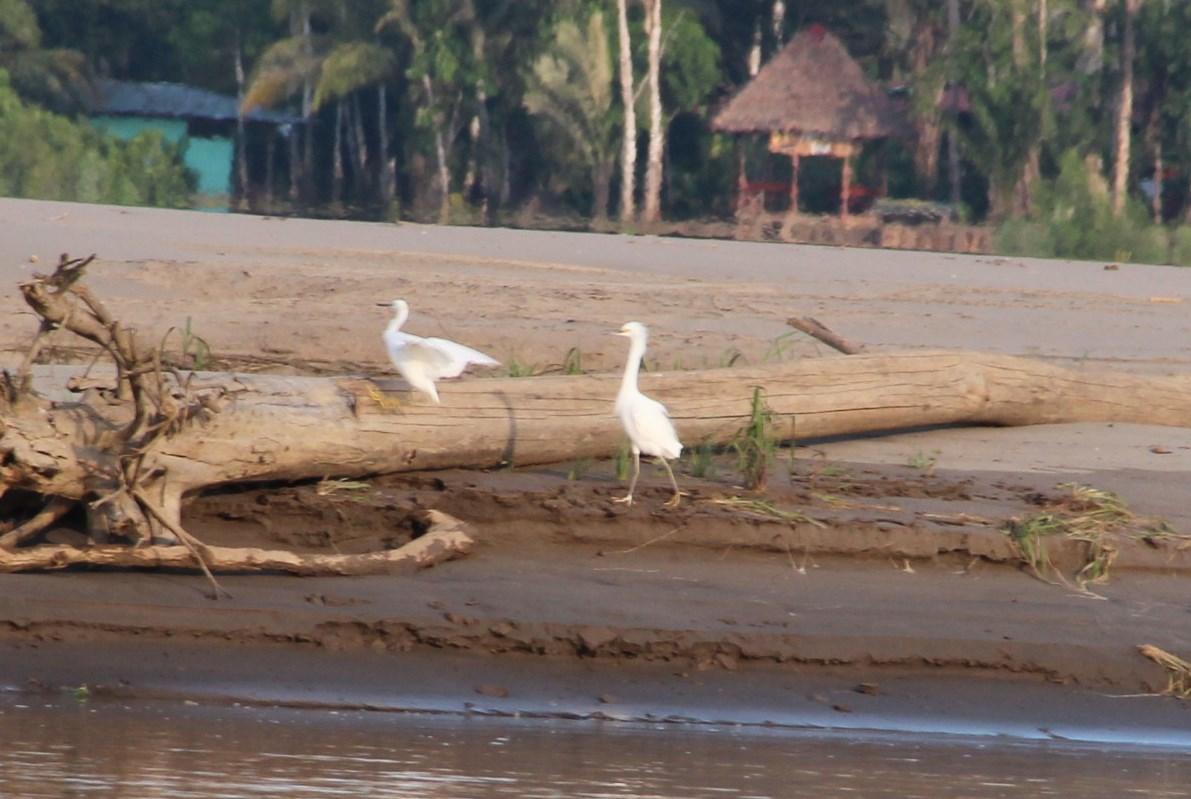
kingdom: Animalia
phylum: Chordata
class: Aves
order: Pelecaniformes
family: Ardeidae
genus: Egretta
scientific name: Egretta thula
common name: Snowy egret
